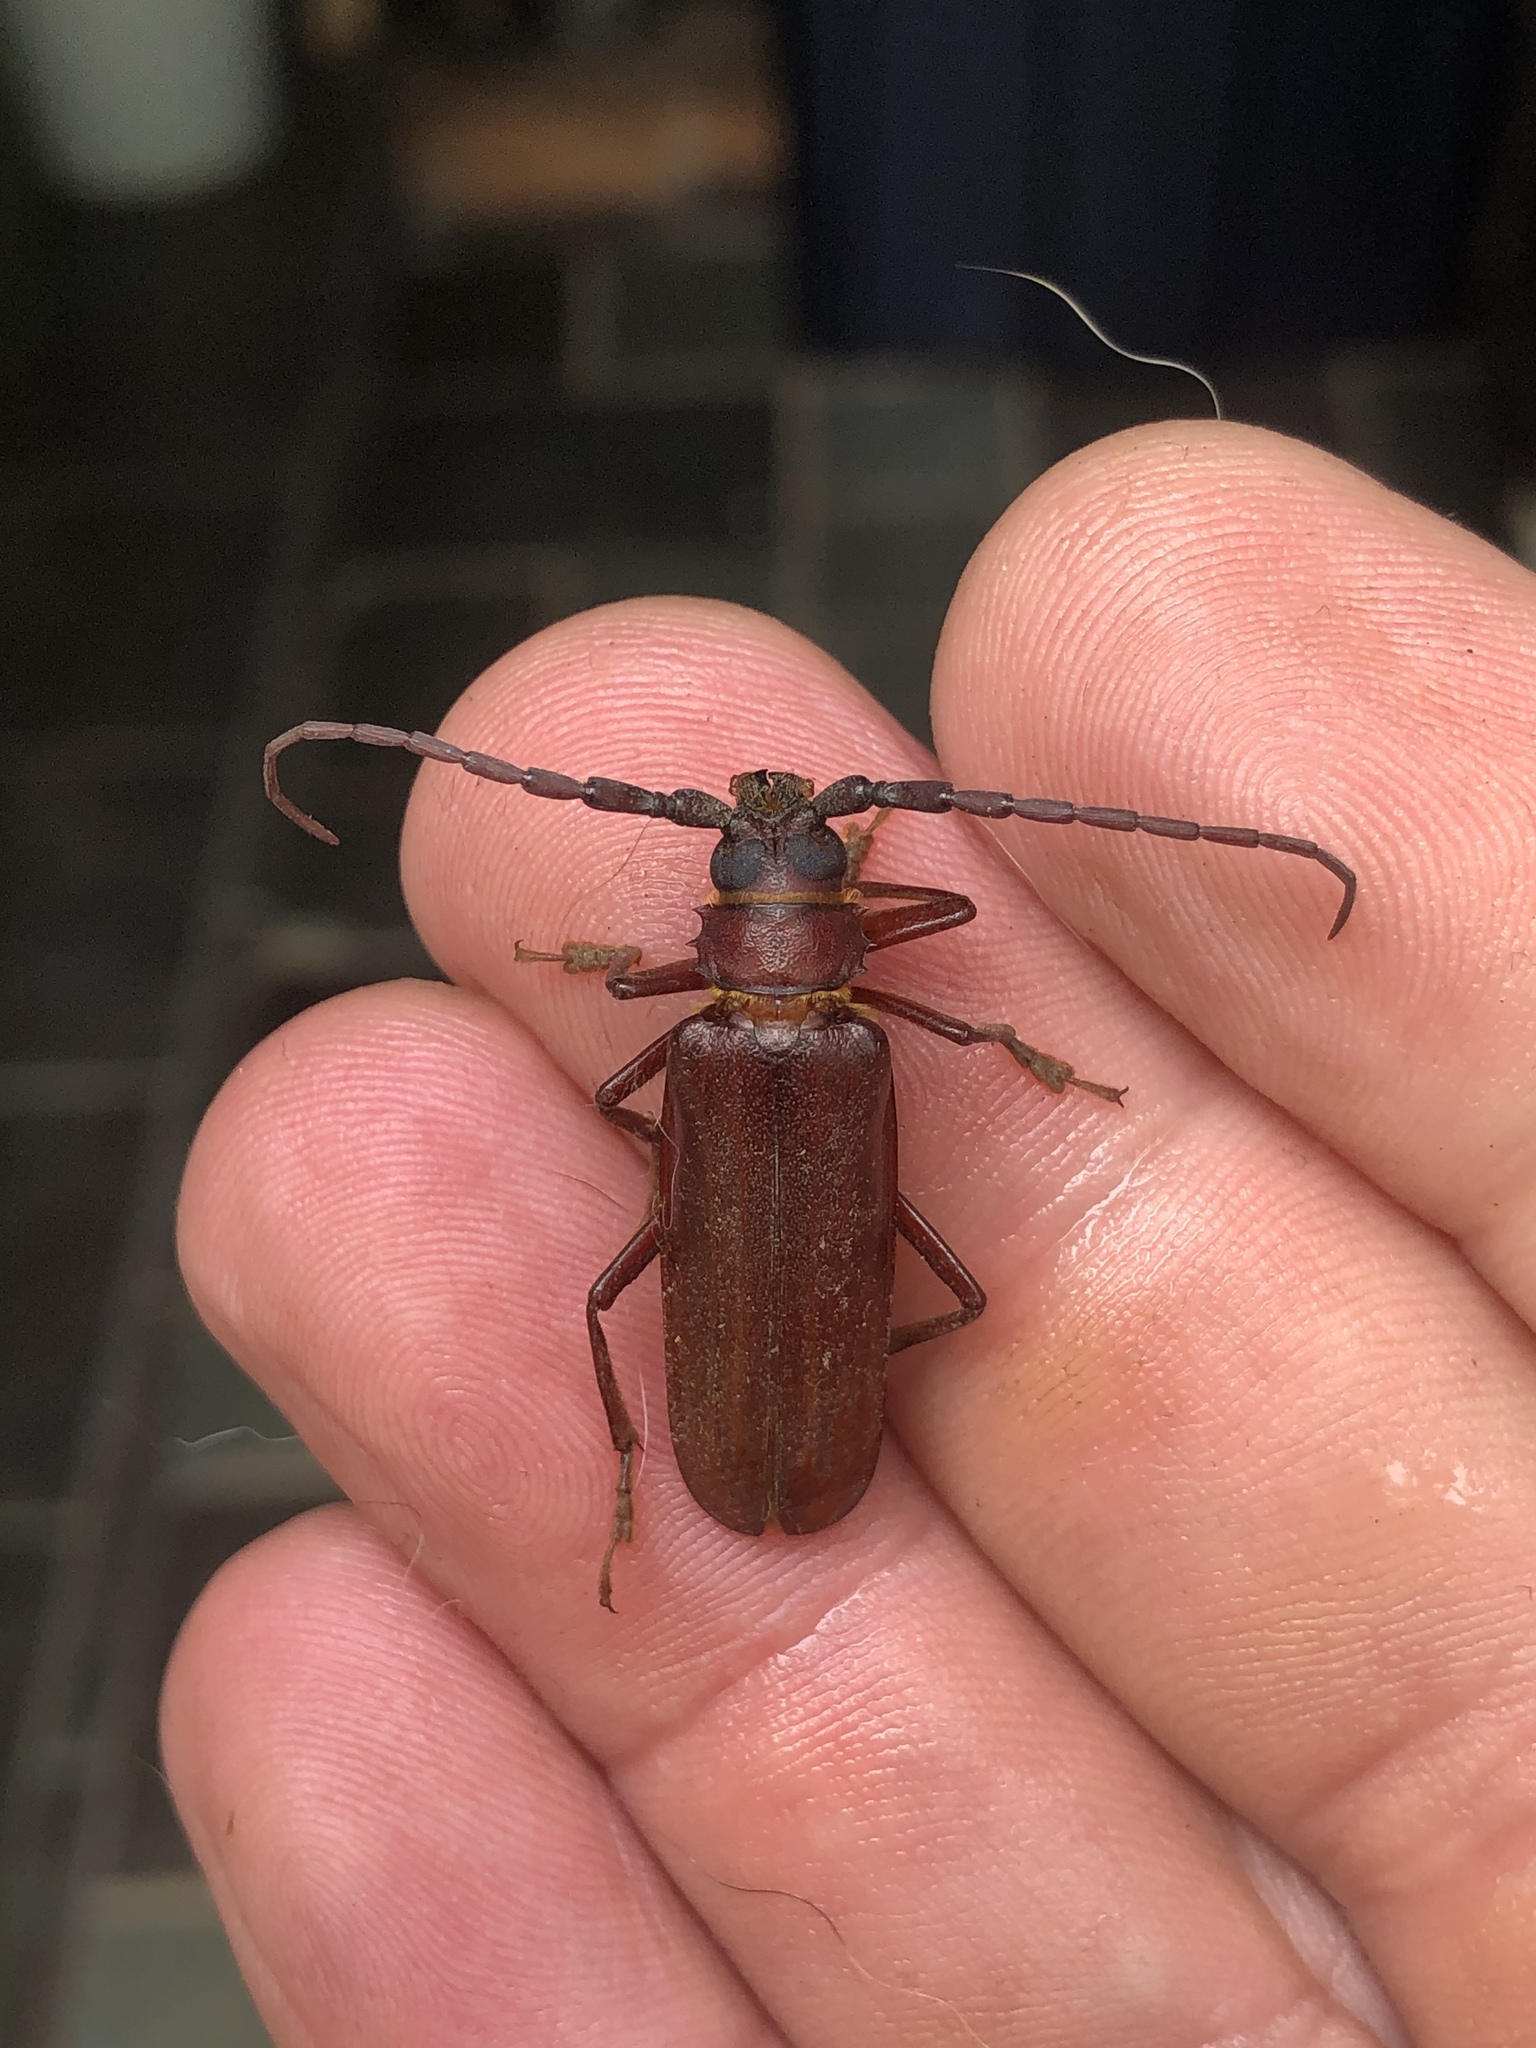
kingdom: Animalia
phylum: Arthropoda
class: Insecta
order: Coleoptera
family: Cerambycidae
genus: Orthosoma
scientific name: Orthosoma brunneum
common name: Brown prionid beetle
